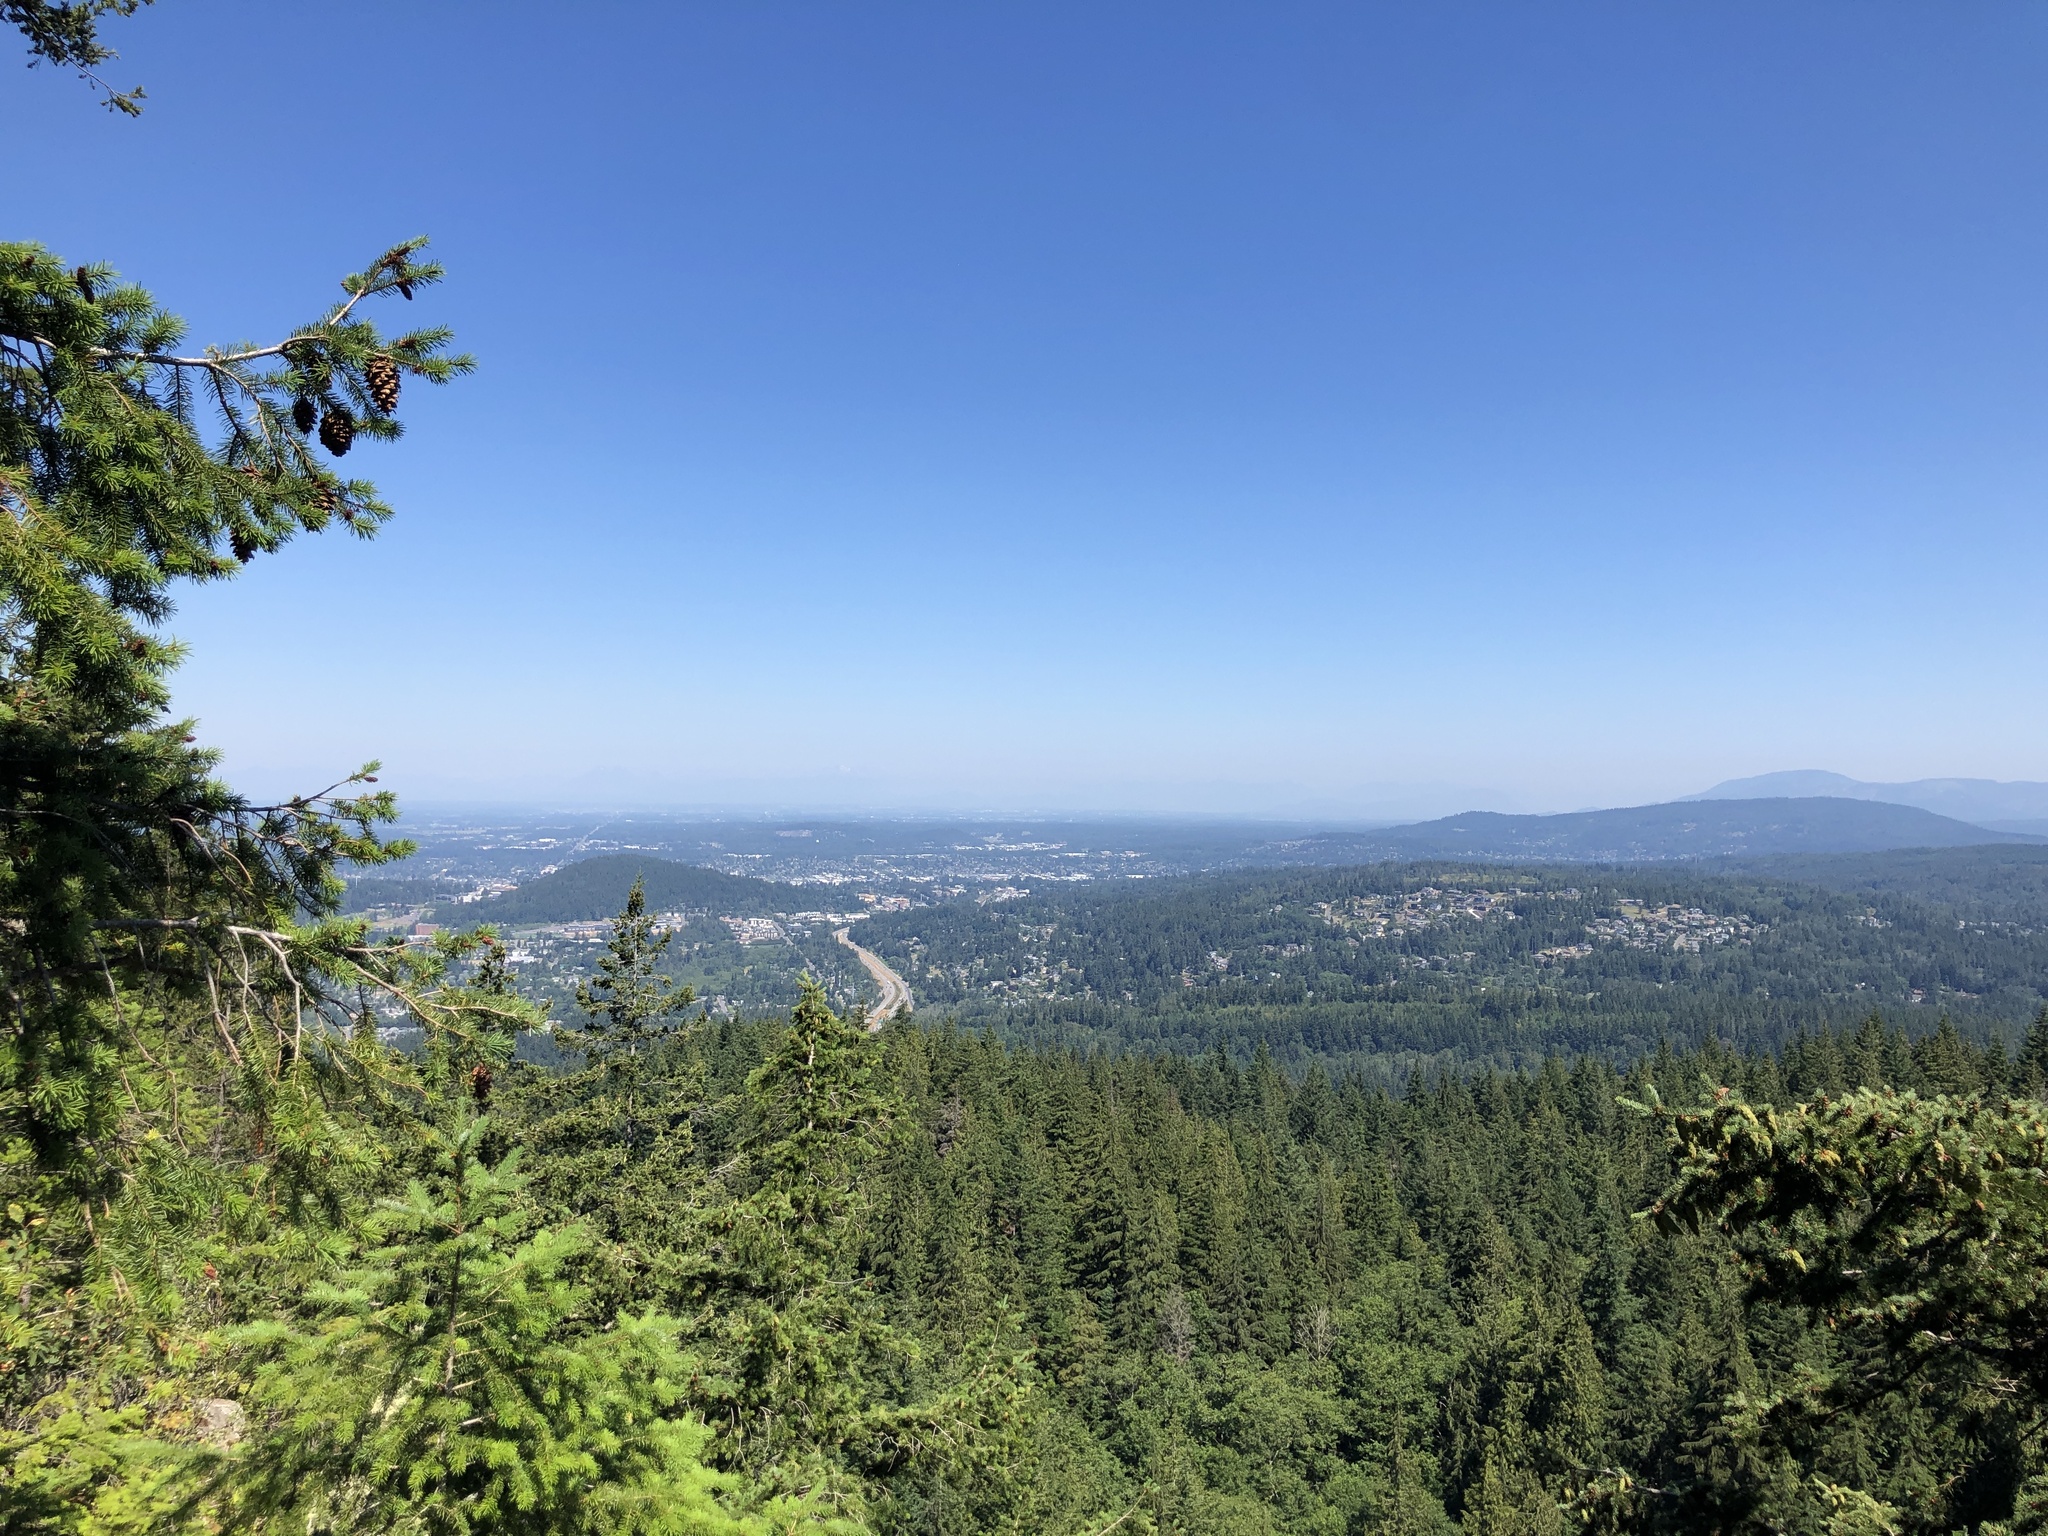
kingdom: Plantae
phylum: Tracheophyta
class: Pinopsida
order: Pinales
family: Pinaceae
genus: Pseudotsuga
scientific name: Pseudotsuga menziesii
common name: Douglas fir
